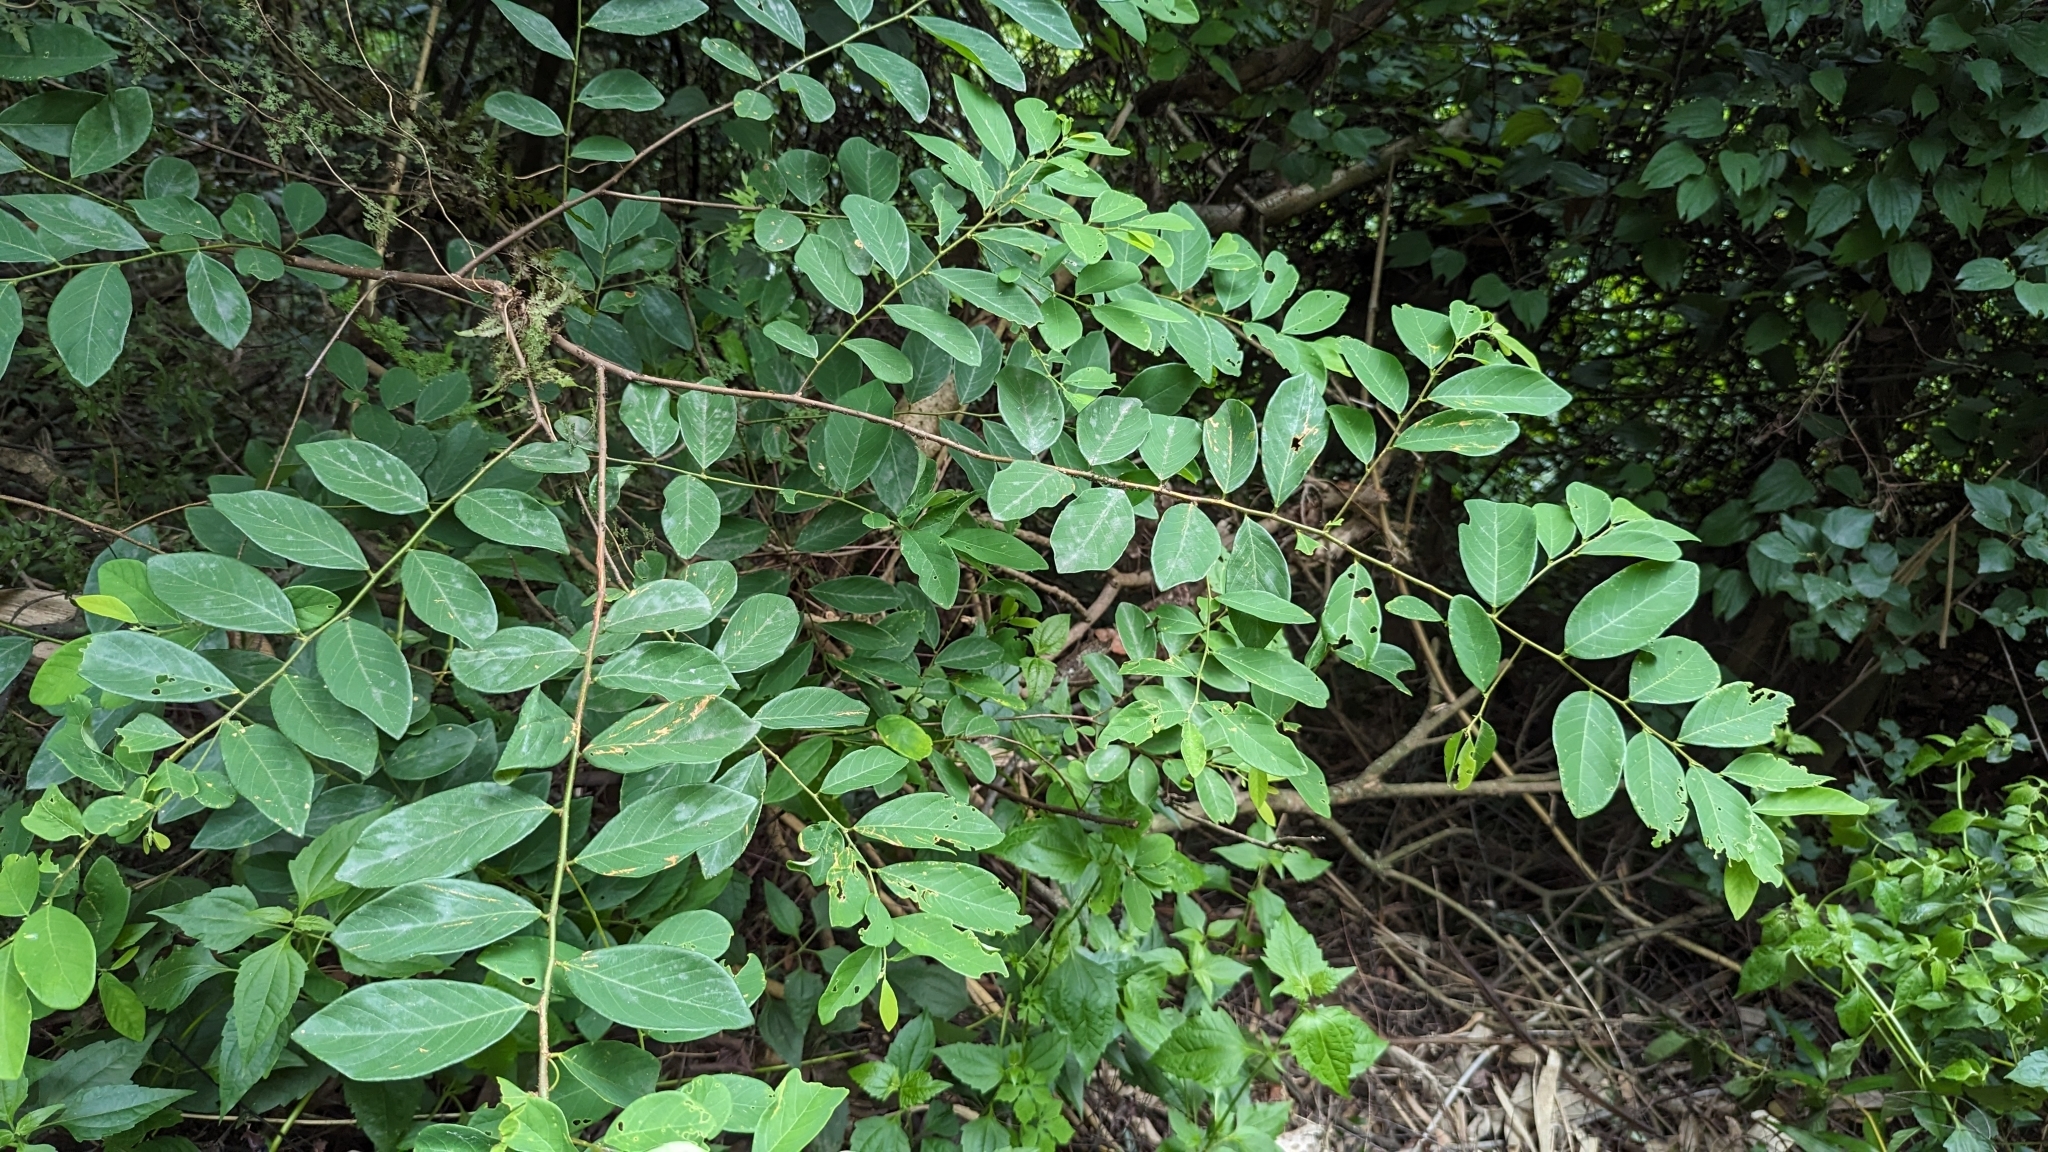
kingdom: Plantae
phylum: Tracheophyta
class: Magnoliopsida
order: Malpighiales
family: Phyllanthaceae
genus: Bridelia
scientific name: Bridelia tomentosa
